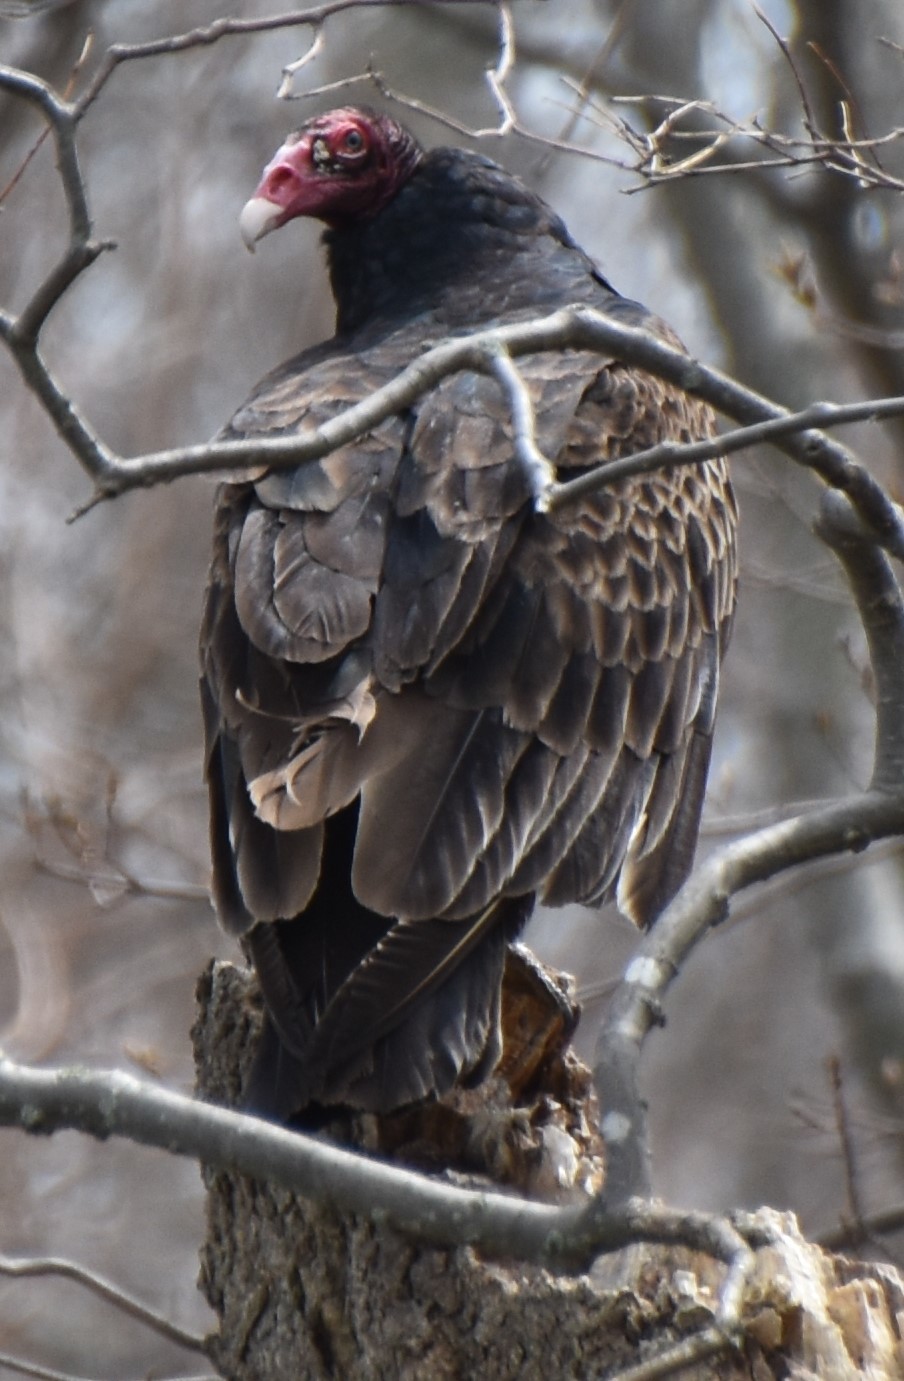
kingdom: Animalia
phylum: Chordata
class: Aves
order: Accipitriformes
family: Cathartidae
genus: Cathartes
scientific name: Cathartes aura
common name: Turkey vulture
